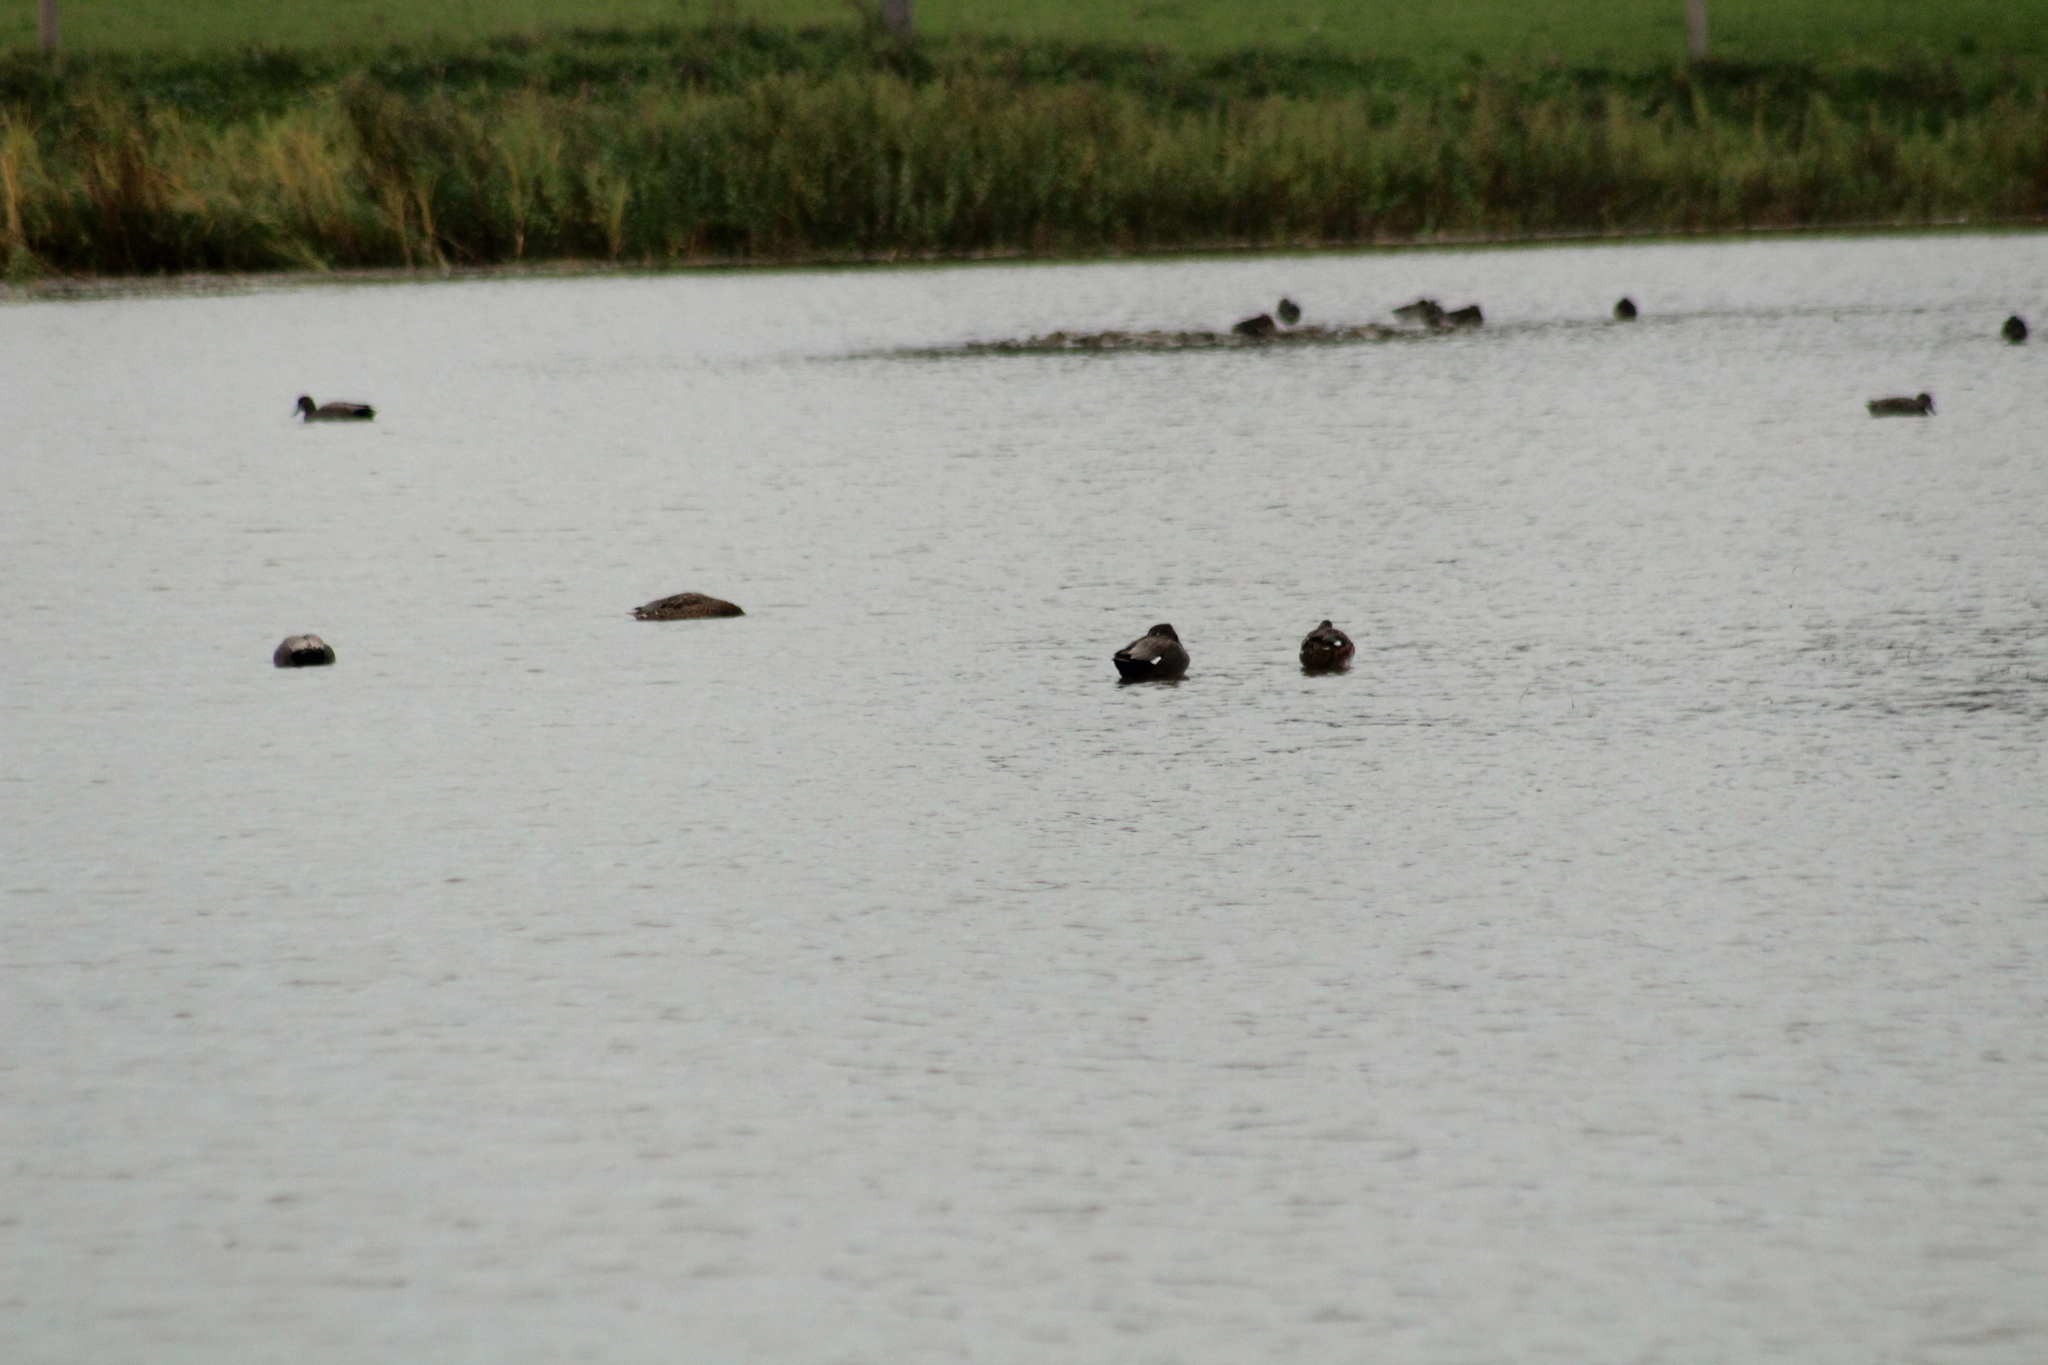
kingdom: Animalia
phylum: Chordata
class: Aves
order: Anseriformes
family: Anatidae
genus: Mareca
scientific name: Mareca strepera
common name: Gadwall
